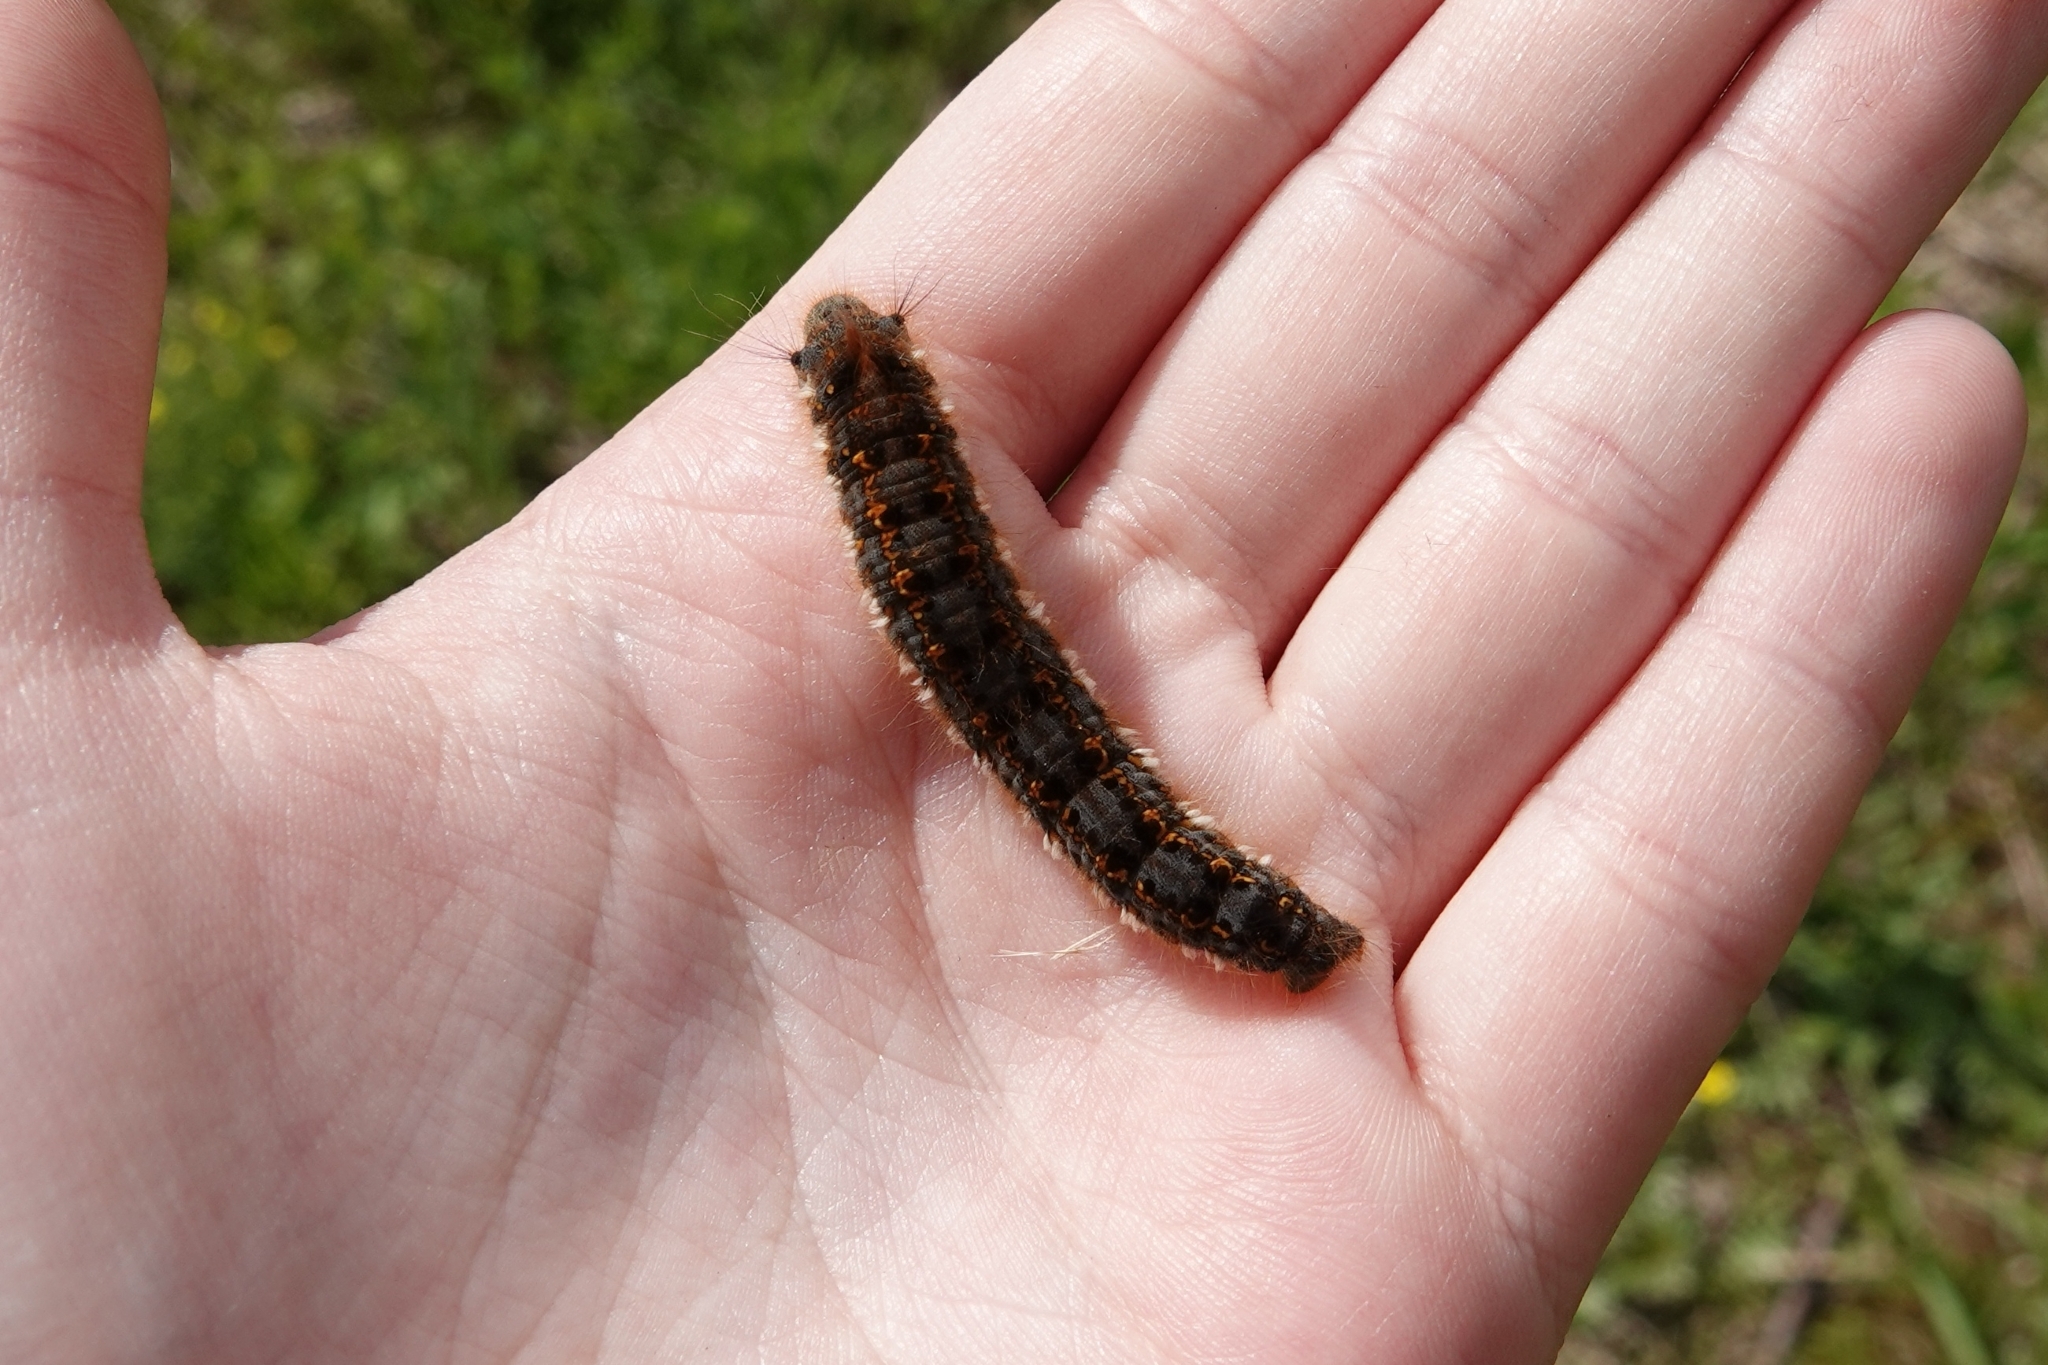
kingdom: Animalia
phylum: Arthropoda
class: Insecta
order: Lepidoptera
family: Lasiocampidae
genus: Euthrix
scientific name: Euthrix potatoria
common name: Drinker
